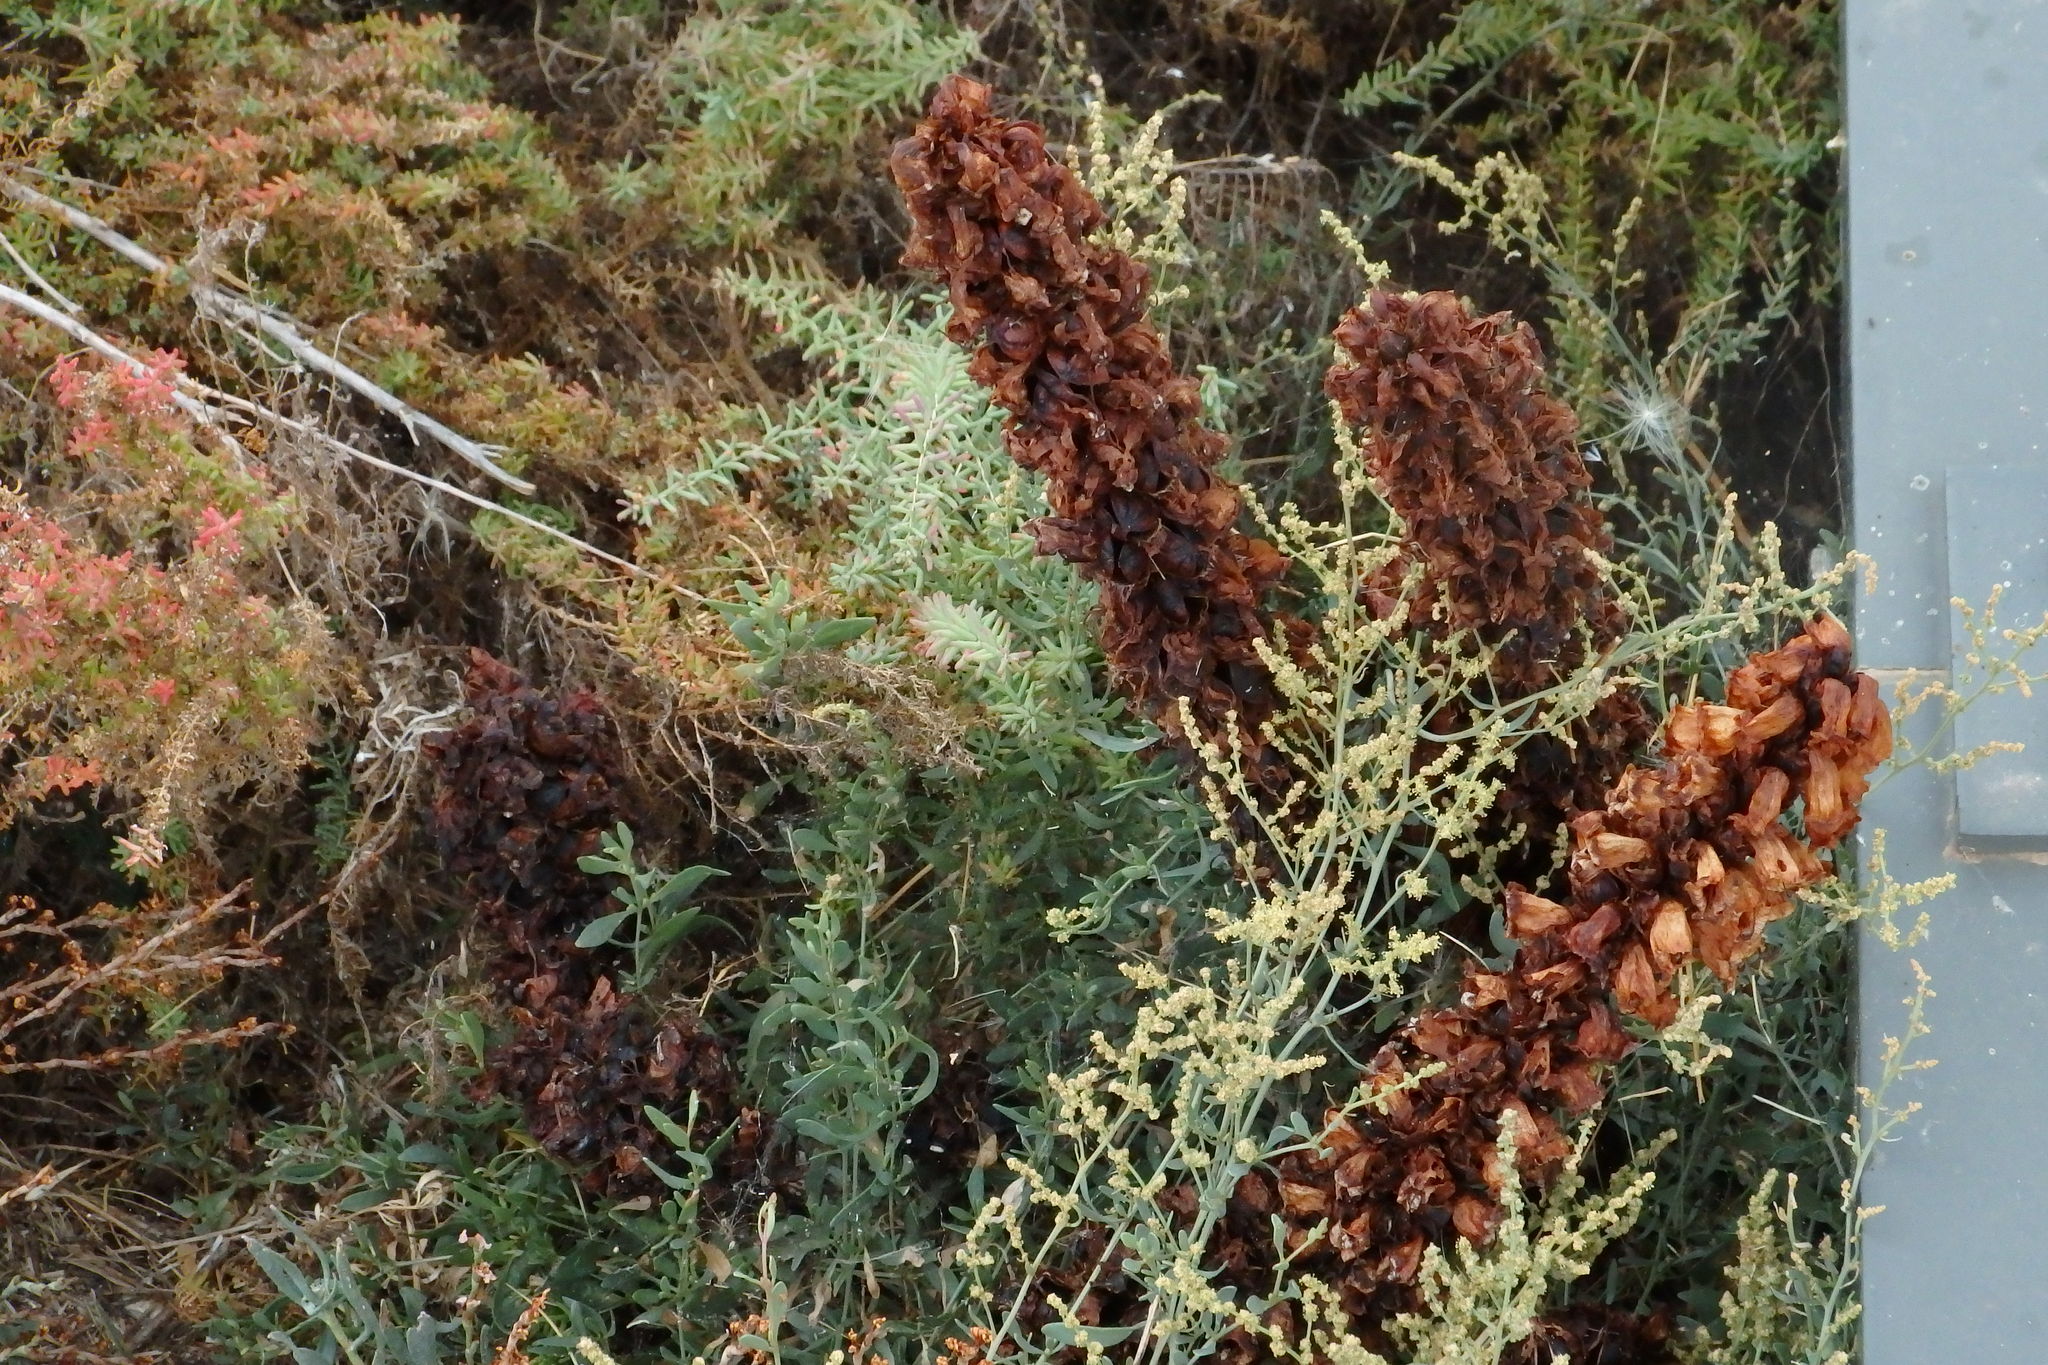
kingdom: Plantae
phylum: Tracheophyta
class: Magnoliopsida
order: Lamiales
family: Orobanchaceae
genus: Cistanche
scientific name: Cistanche phelypaea
